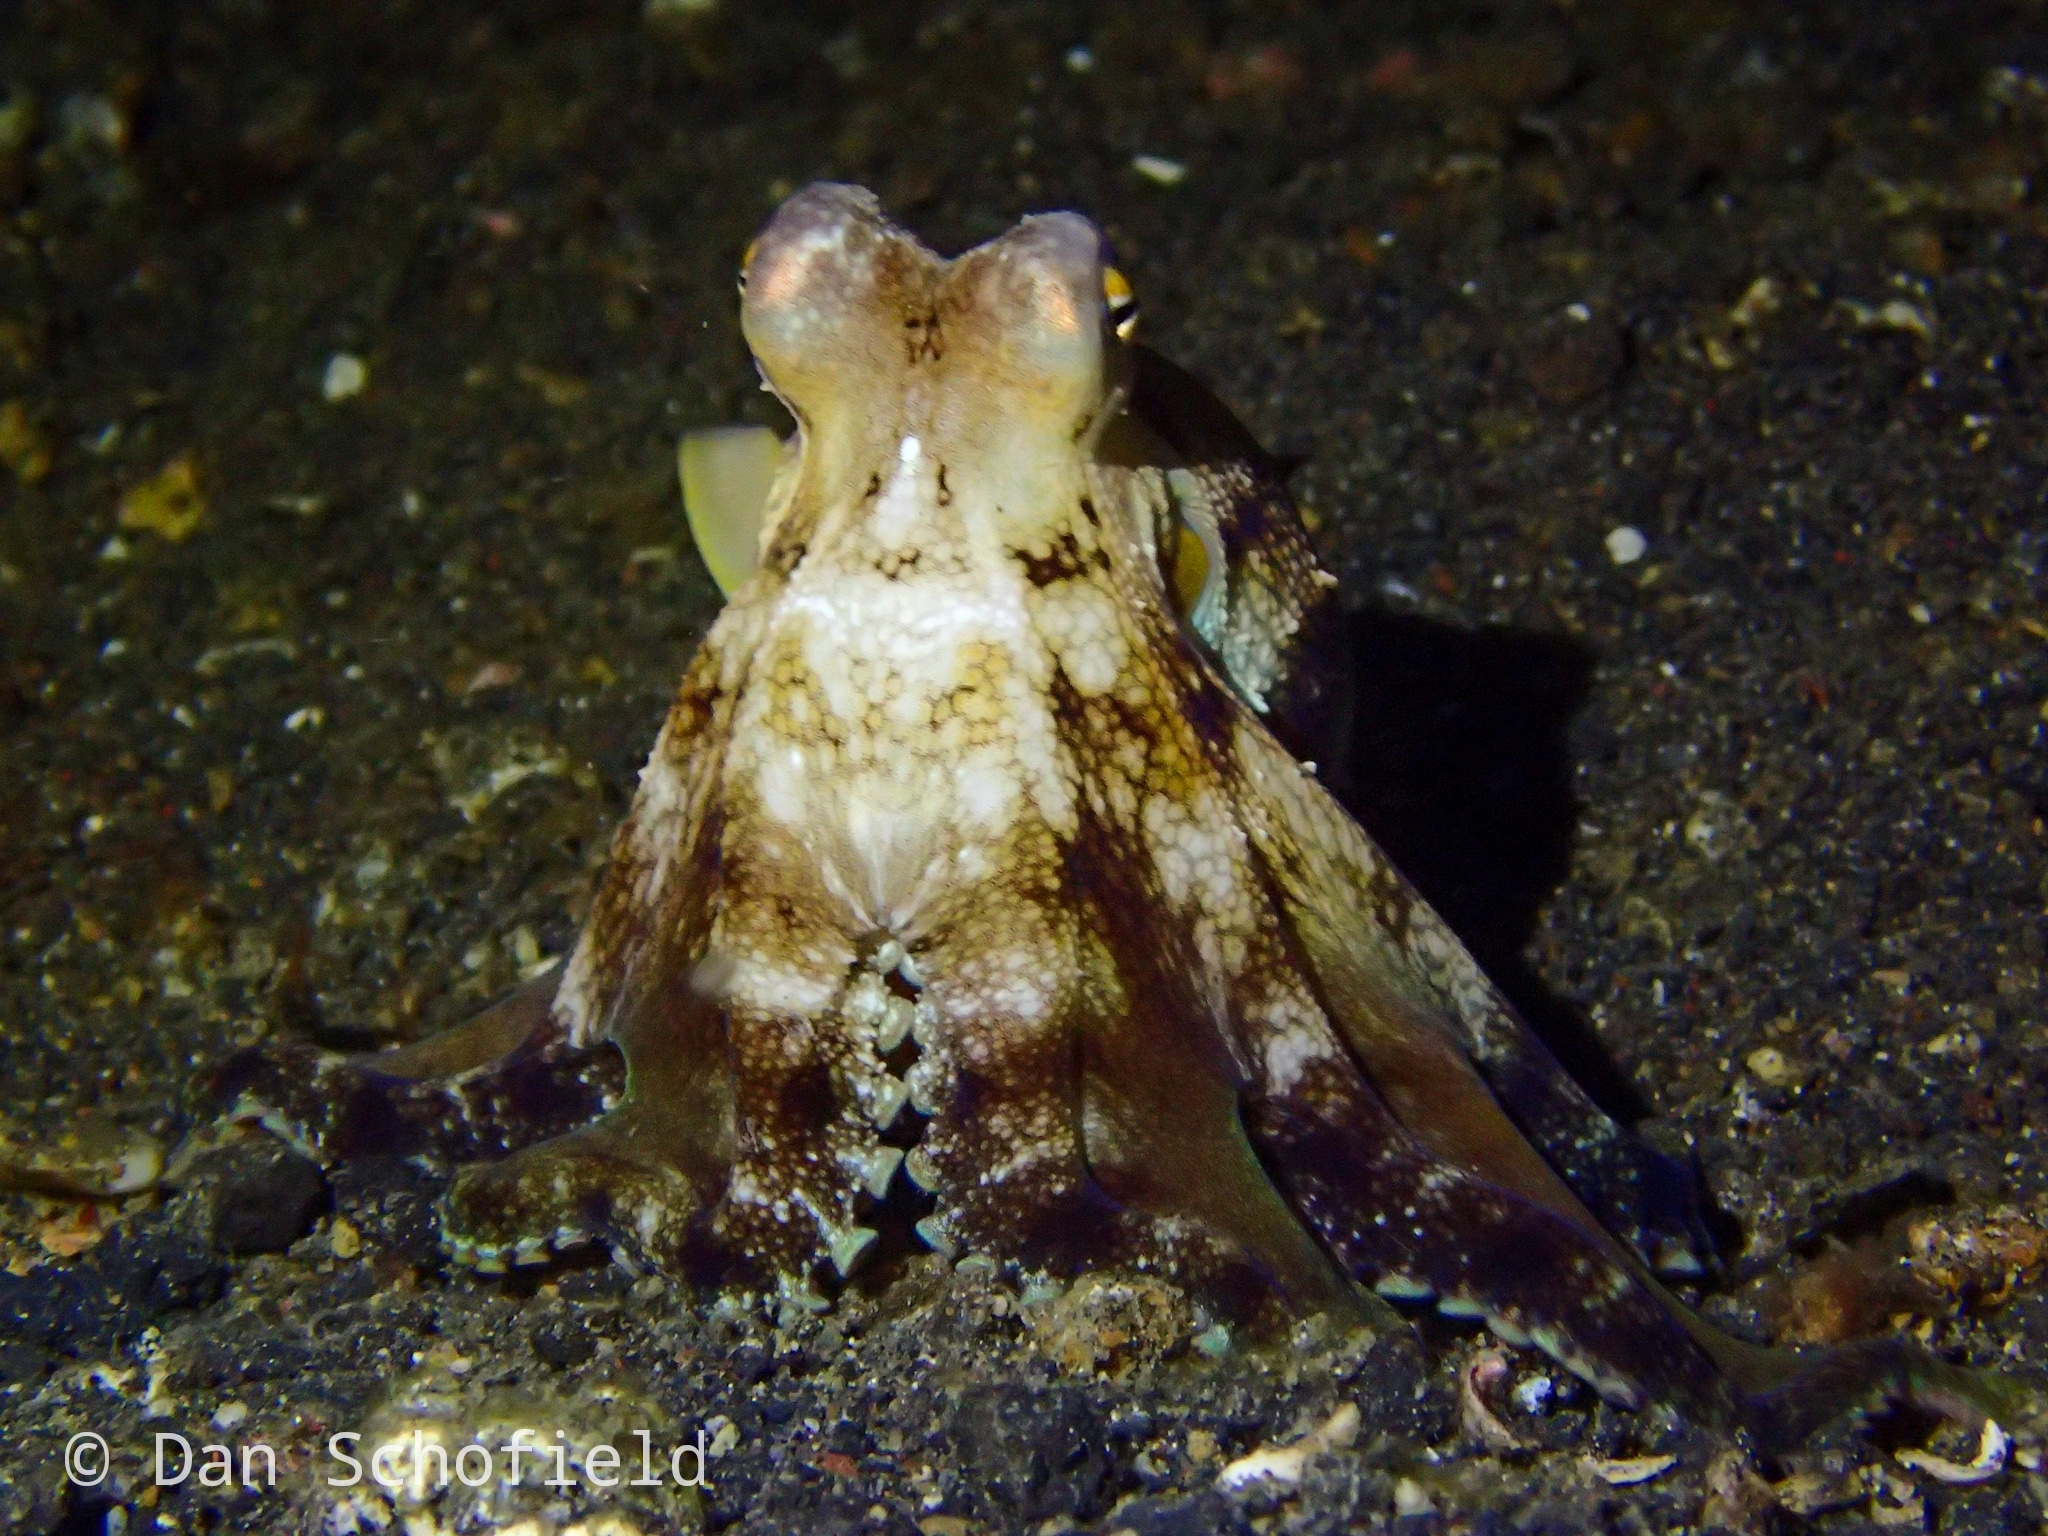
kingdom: Animalia
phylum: Mollusca
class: Cephalopoda
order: Octopoda
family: Octopodidae
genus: Amphioctopus
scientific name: Amphioctopus marginatus
